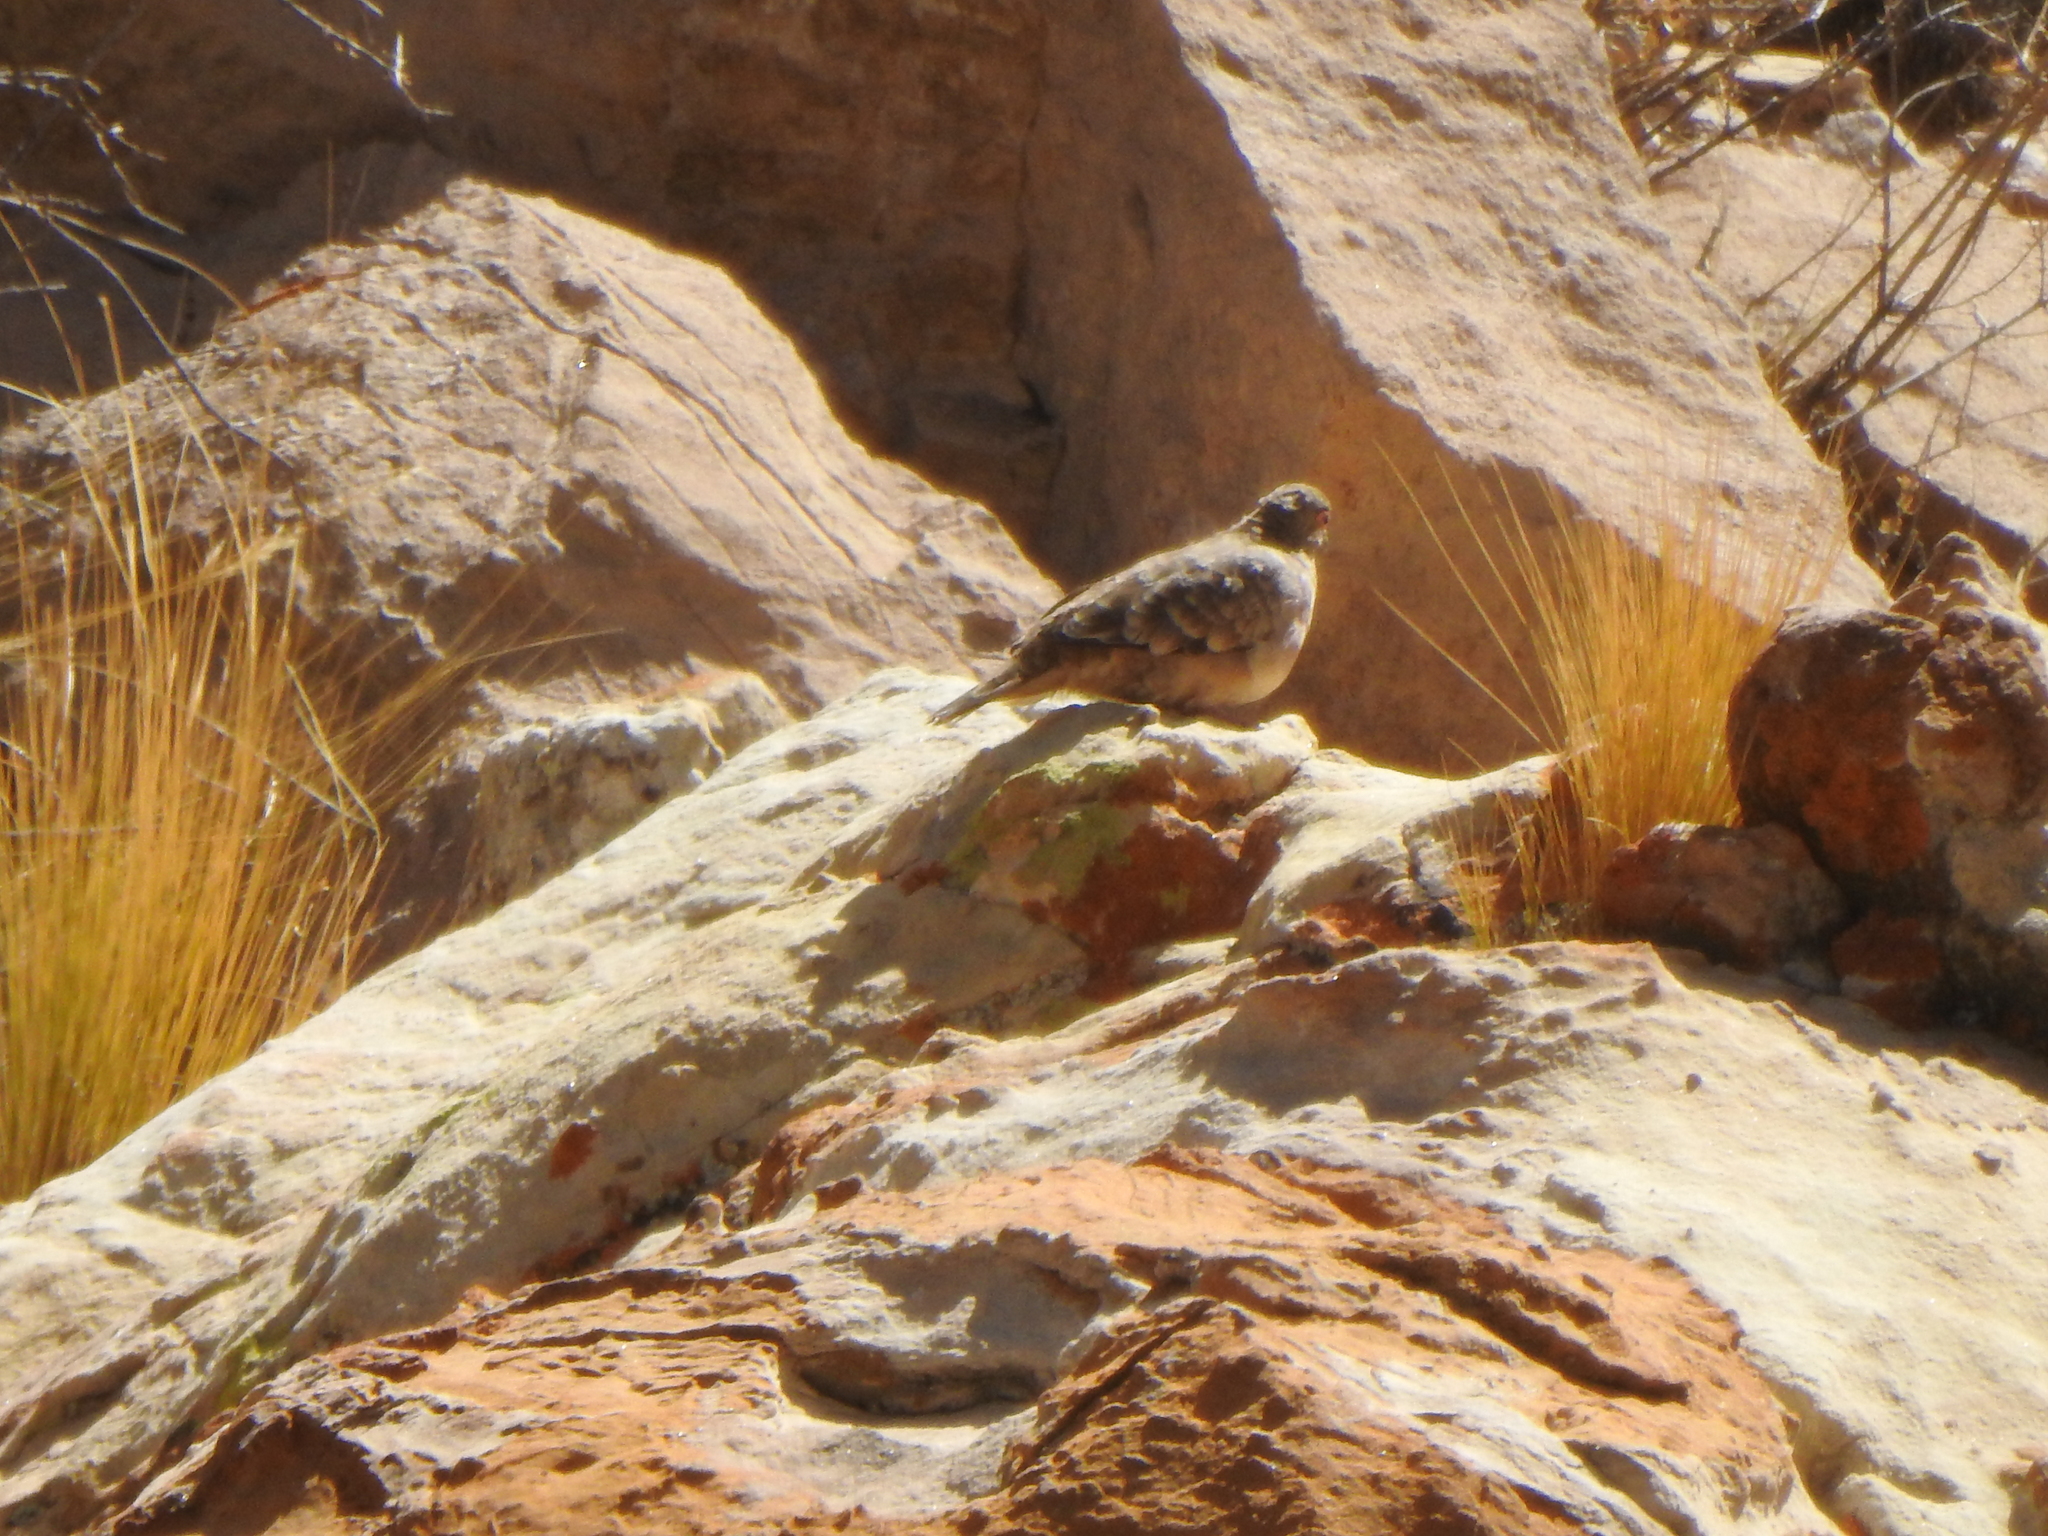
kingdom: Animalia
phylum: Chordata
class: Aves
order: Columbiformes
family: Columbidae
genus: Metriopelia
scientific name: Metriopelia ceciliae
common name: Bare-faced ground dove
